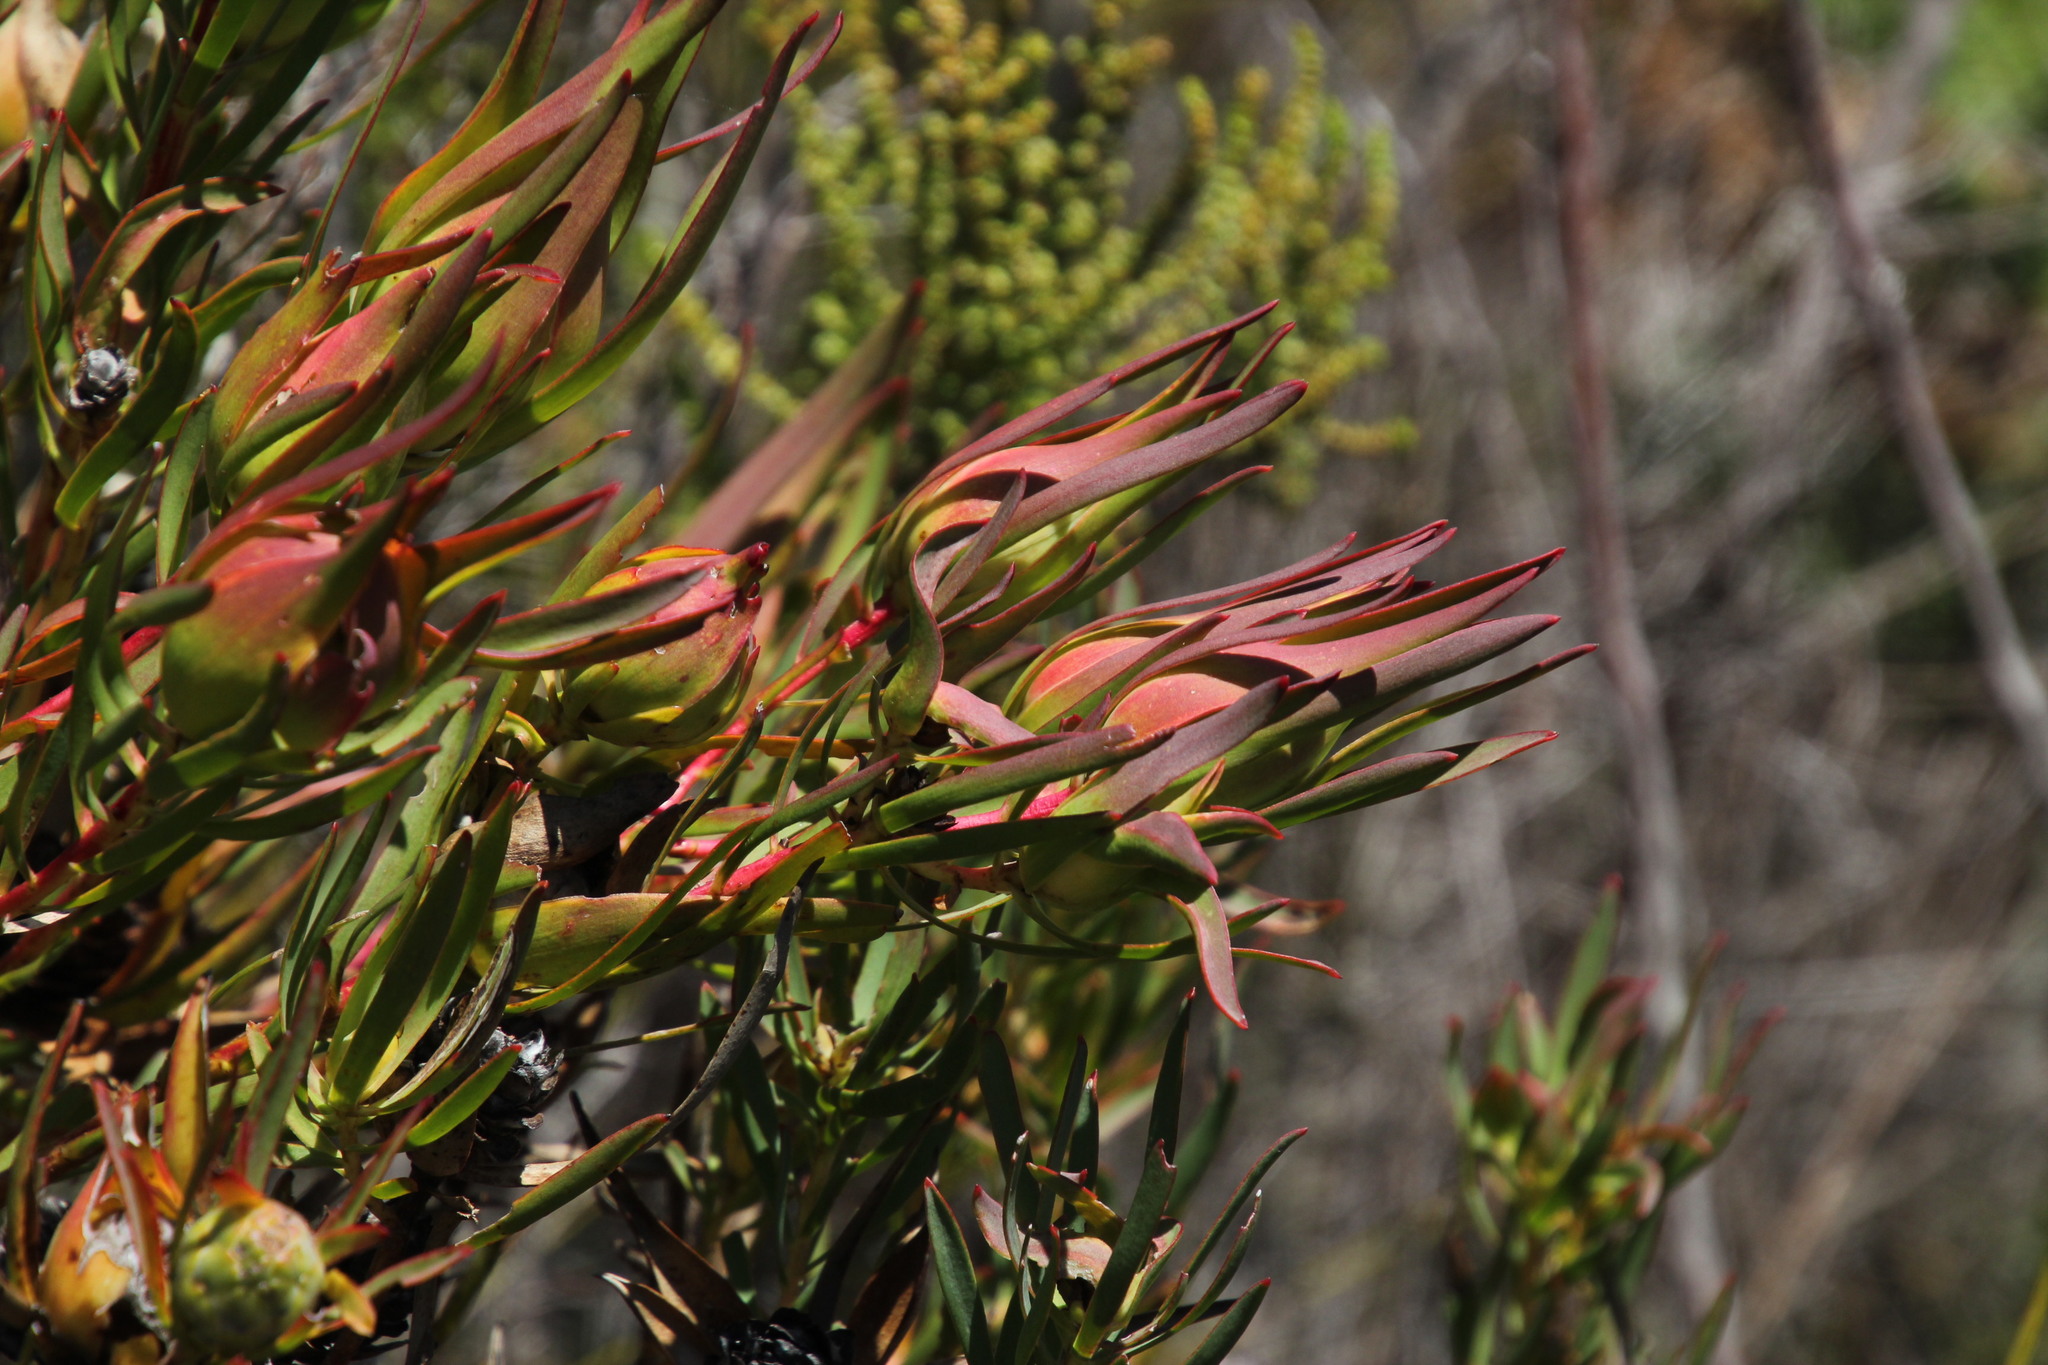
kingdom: Plantae
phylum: Tracheophyta
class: Magnoliopsida
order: Proteales
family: Proteaceae
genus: Leucadendron
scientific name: Leucadendron salignum
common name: Common sunshine conebush
